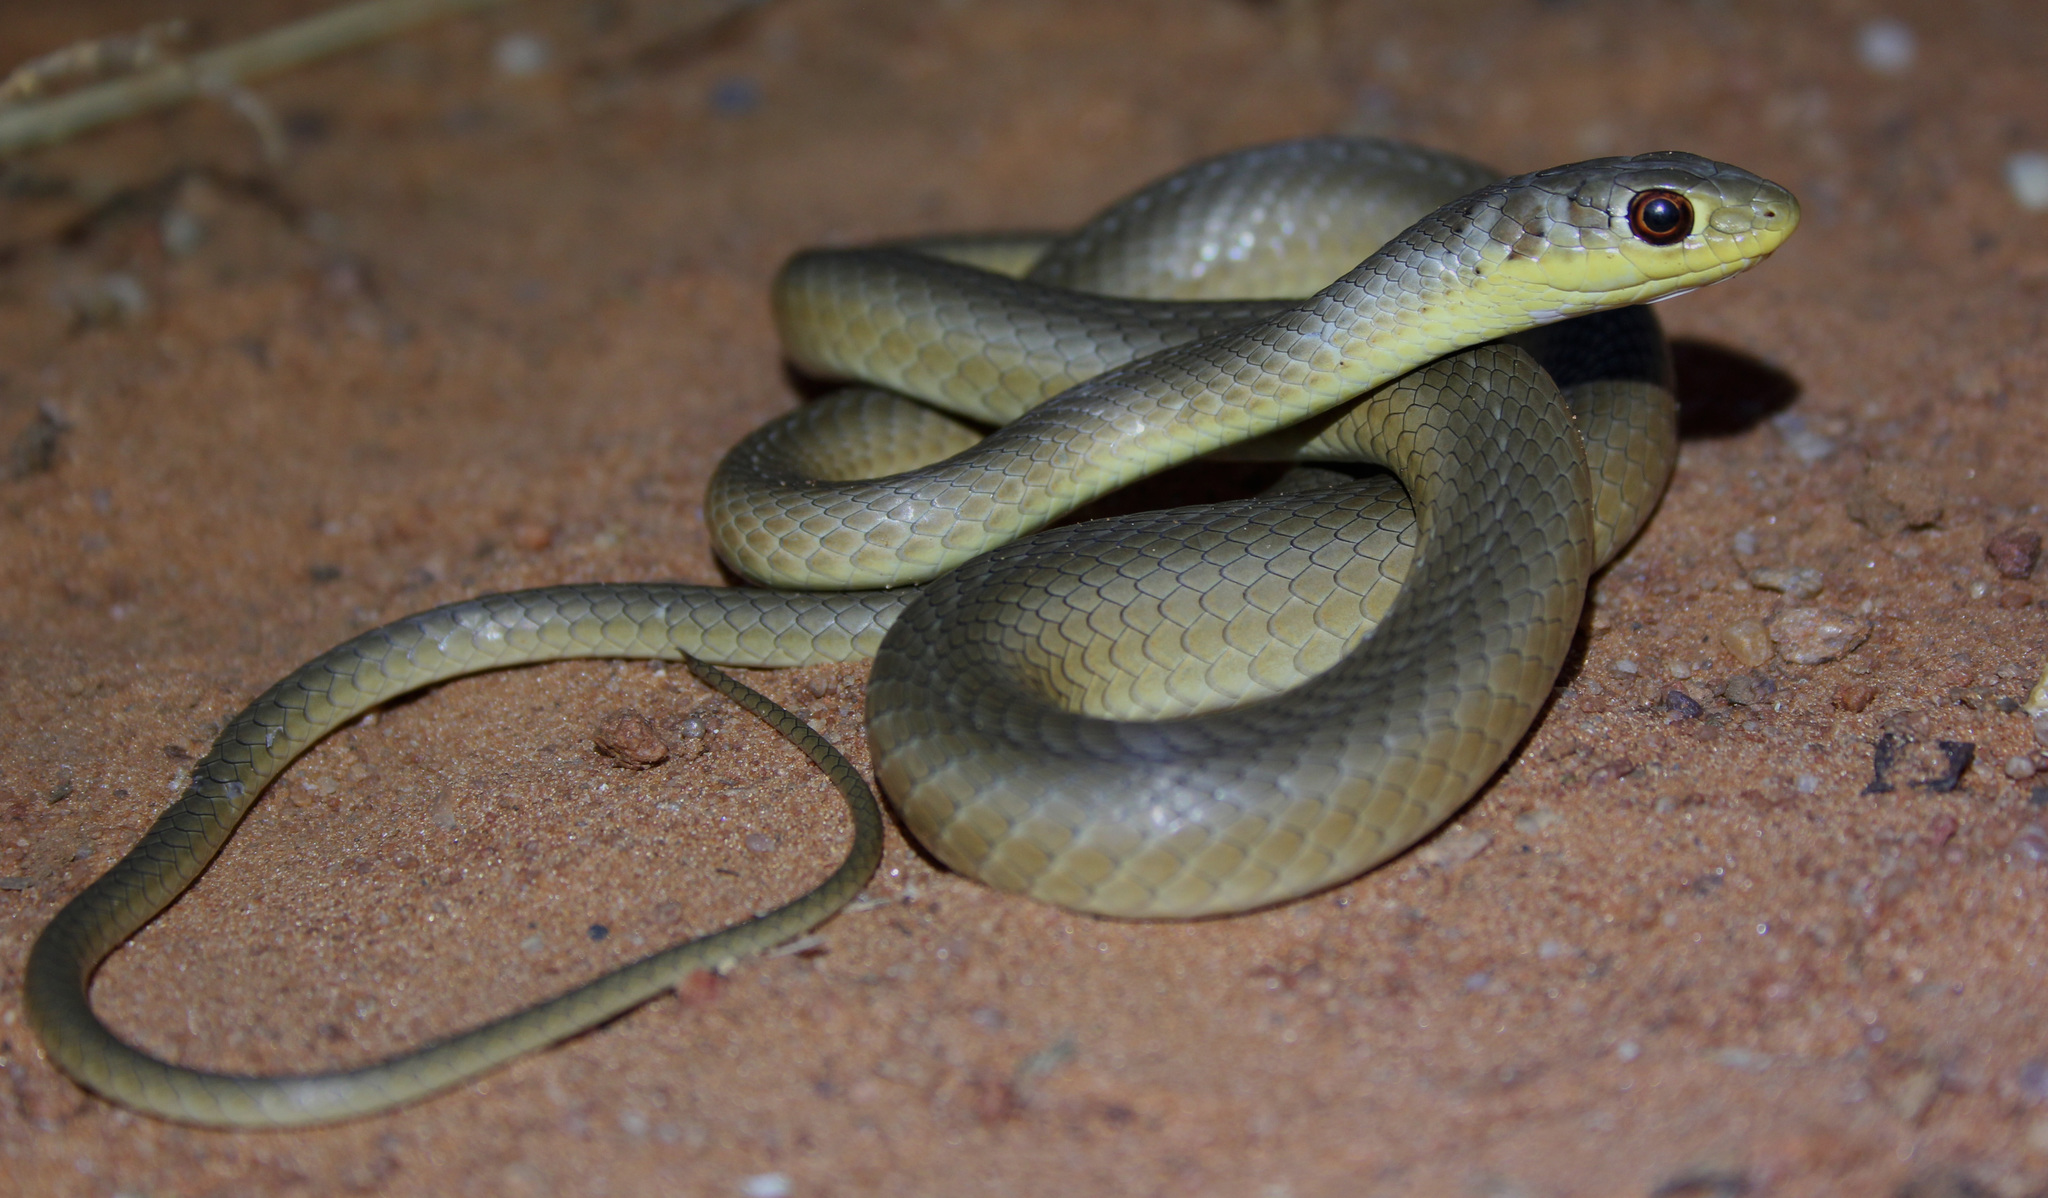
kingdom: Animalia
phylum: Chordata
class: Squamata
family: Psammophiidae
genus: Psammophis
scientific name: Psammophis brevirostris
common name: Short-snouted grass snake
